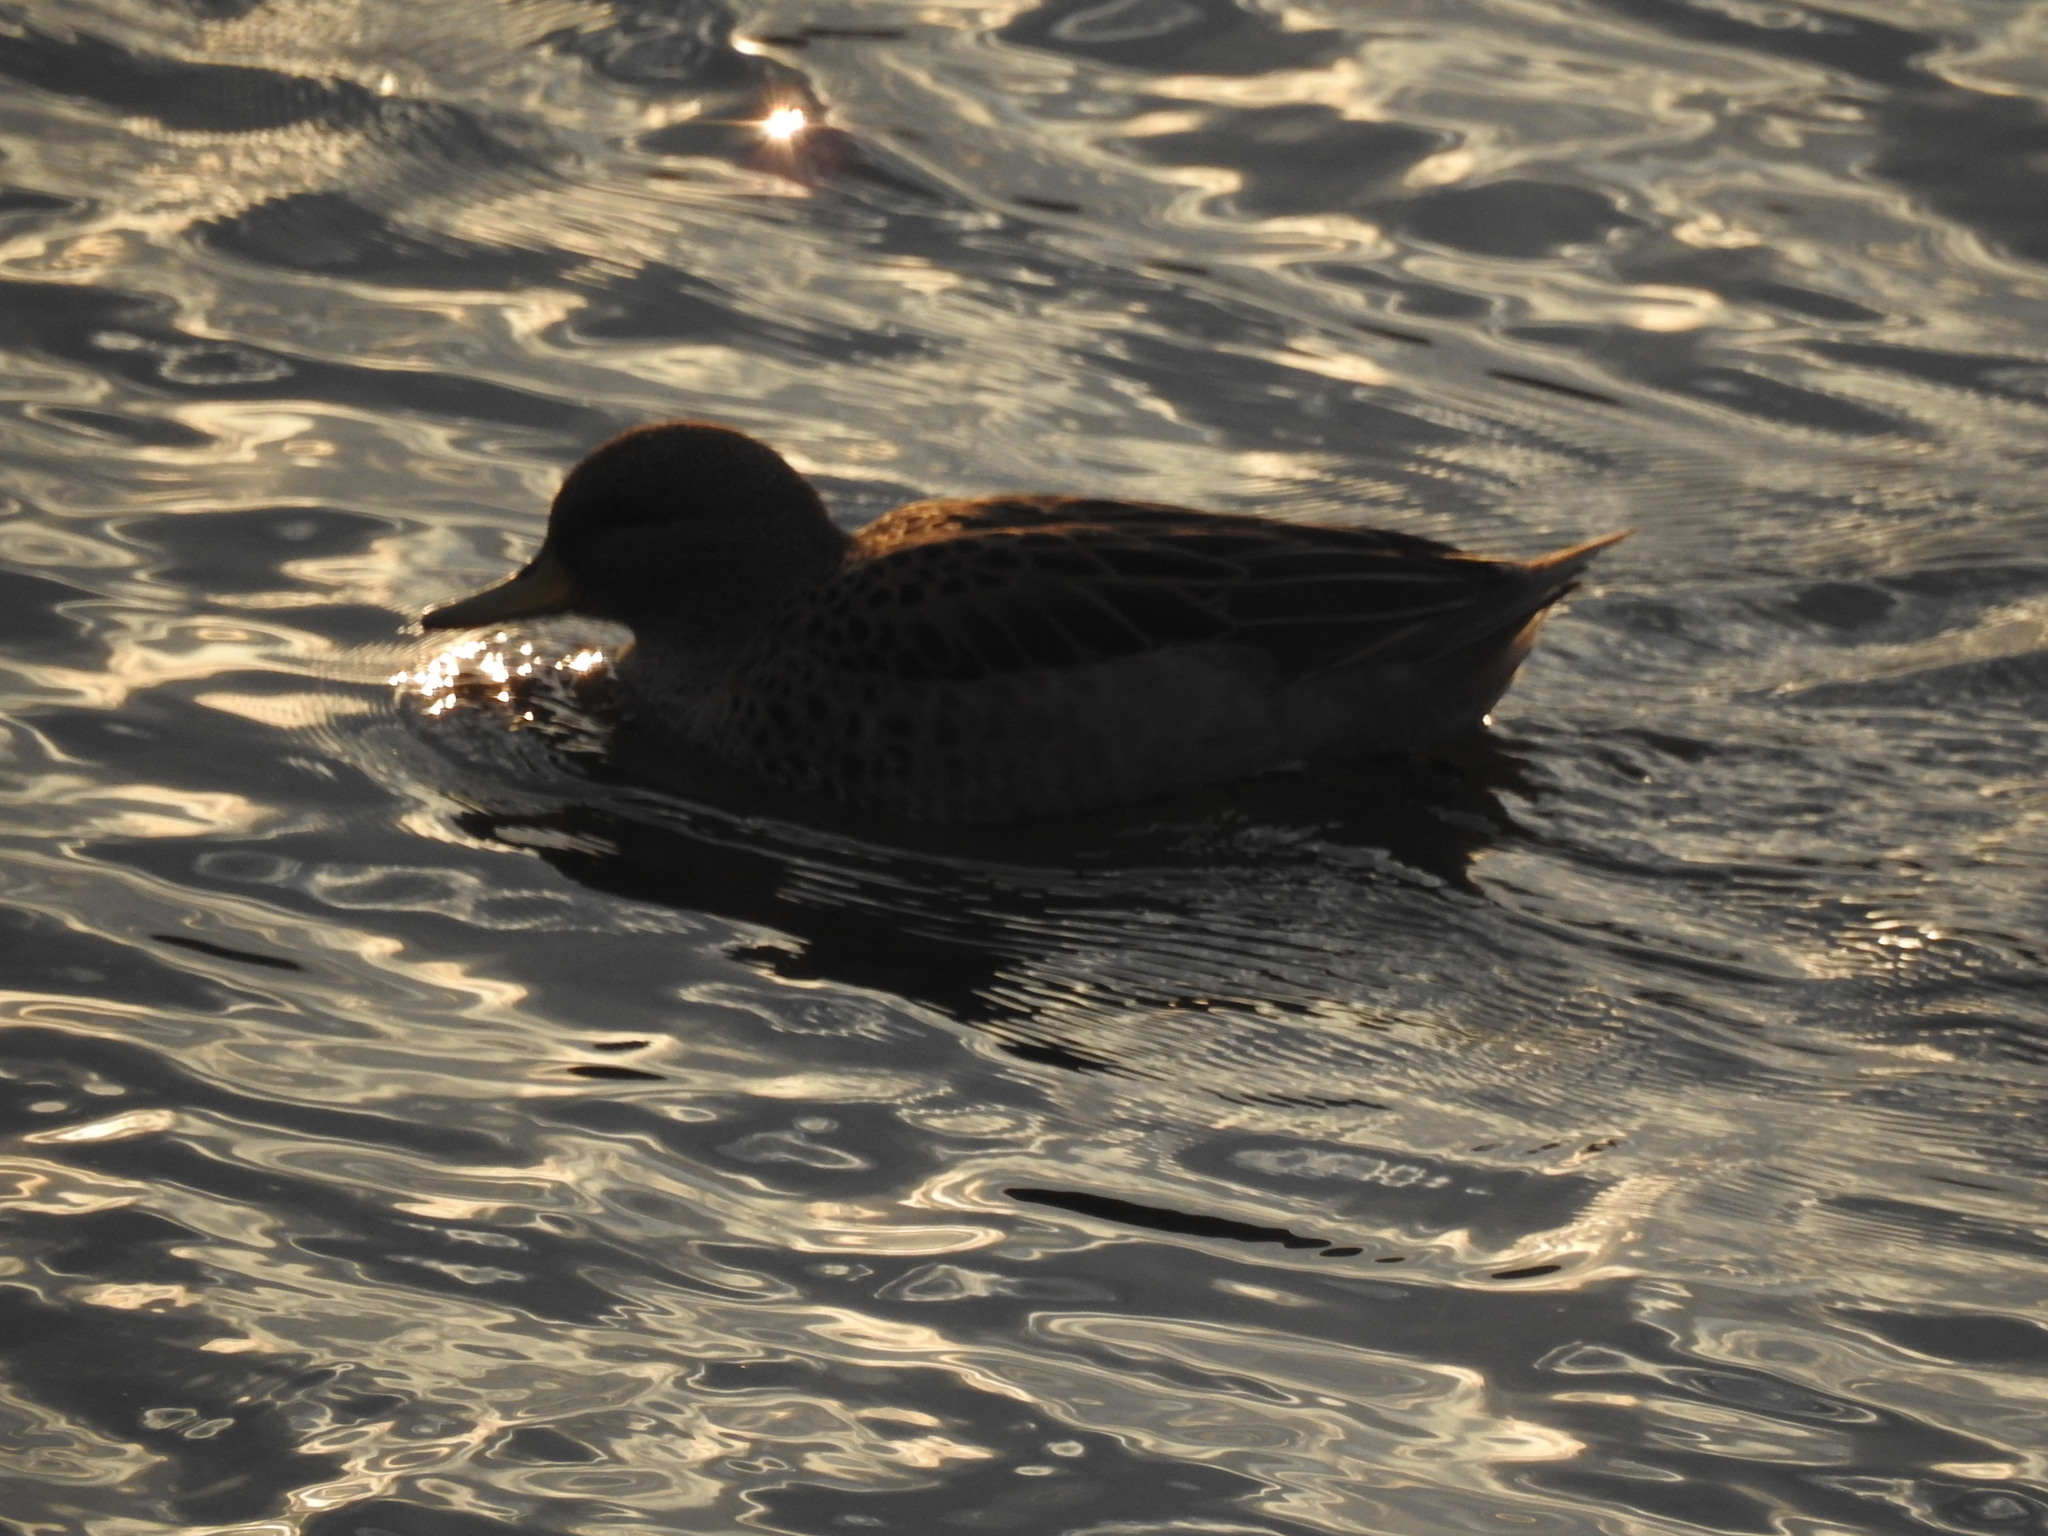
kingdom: Animalia
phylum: Chordata
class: Aves
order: Anseriformes
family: Anatidae
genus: Anas
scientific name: Anas flavirostris
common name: Yellow-billed teal
